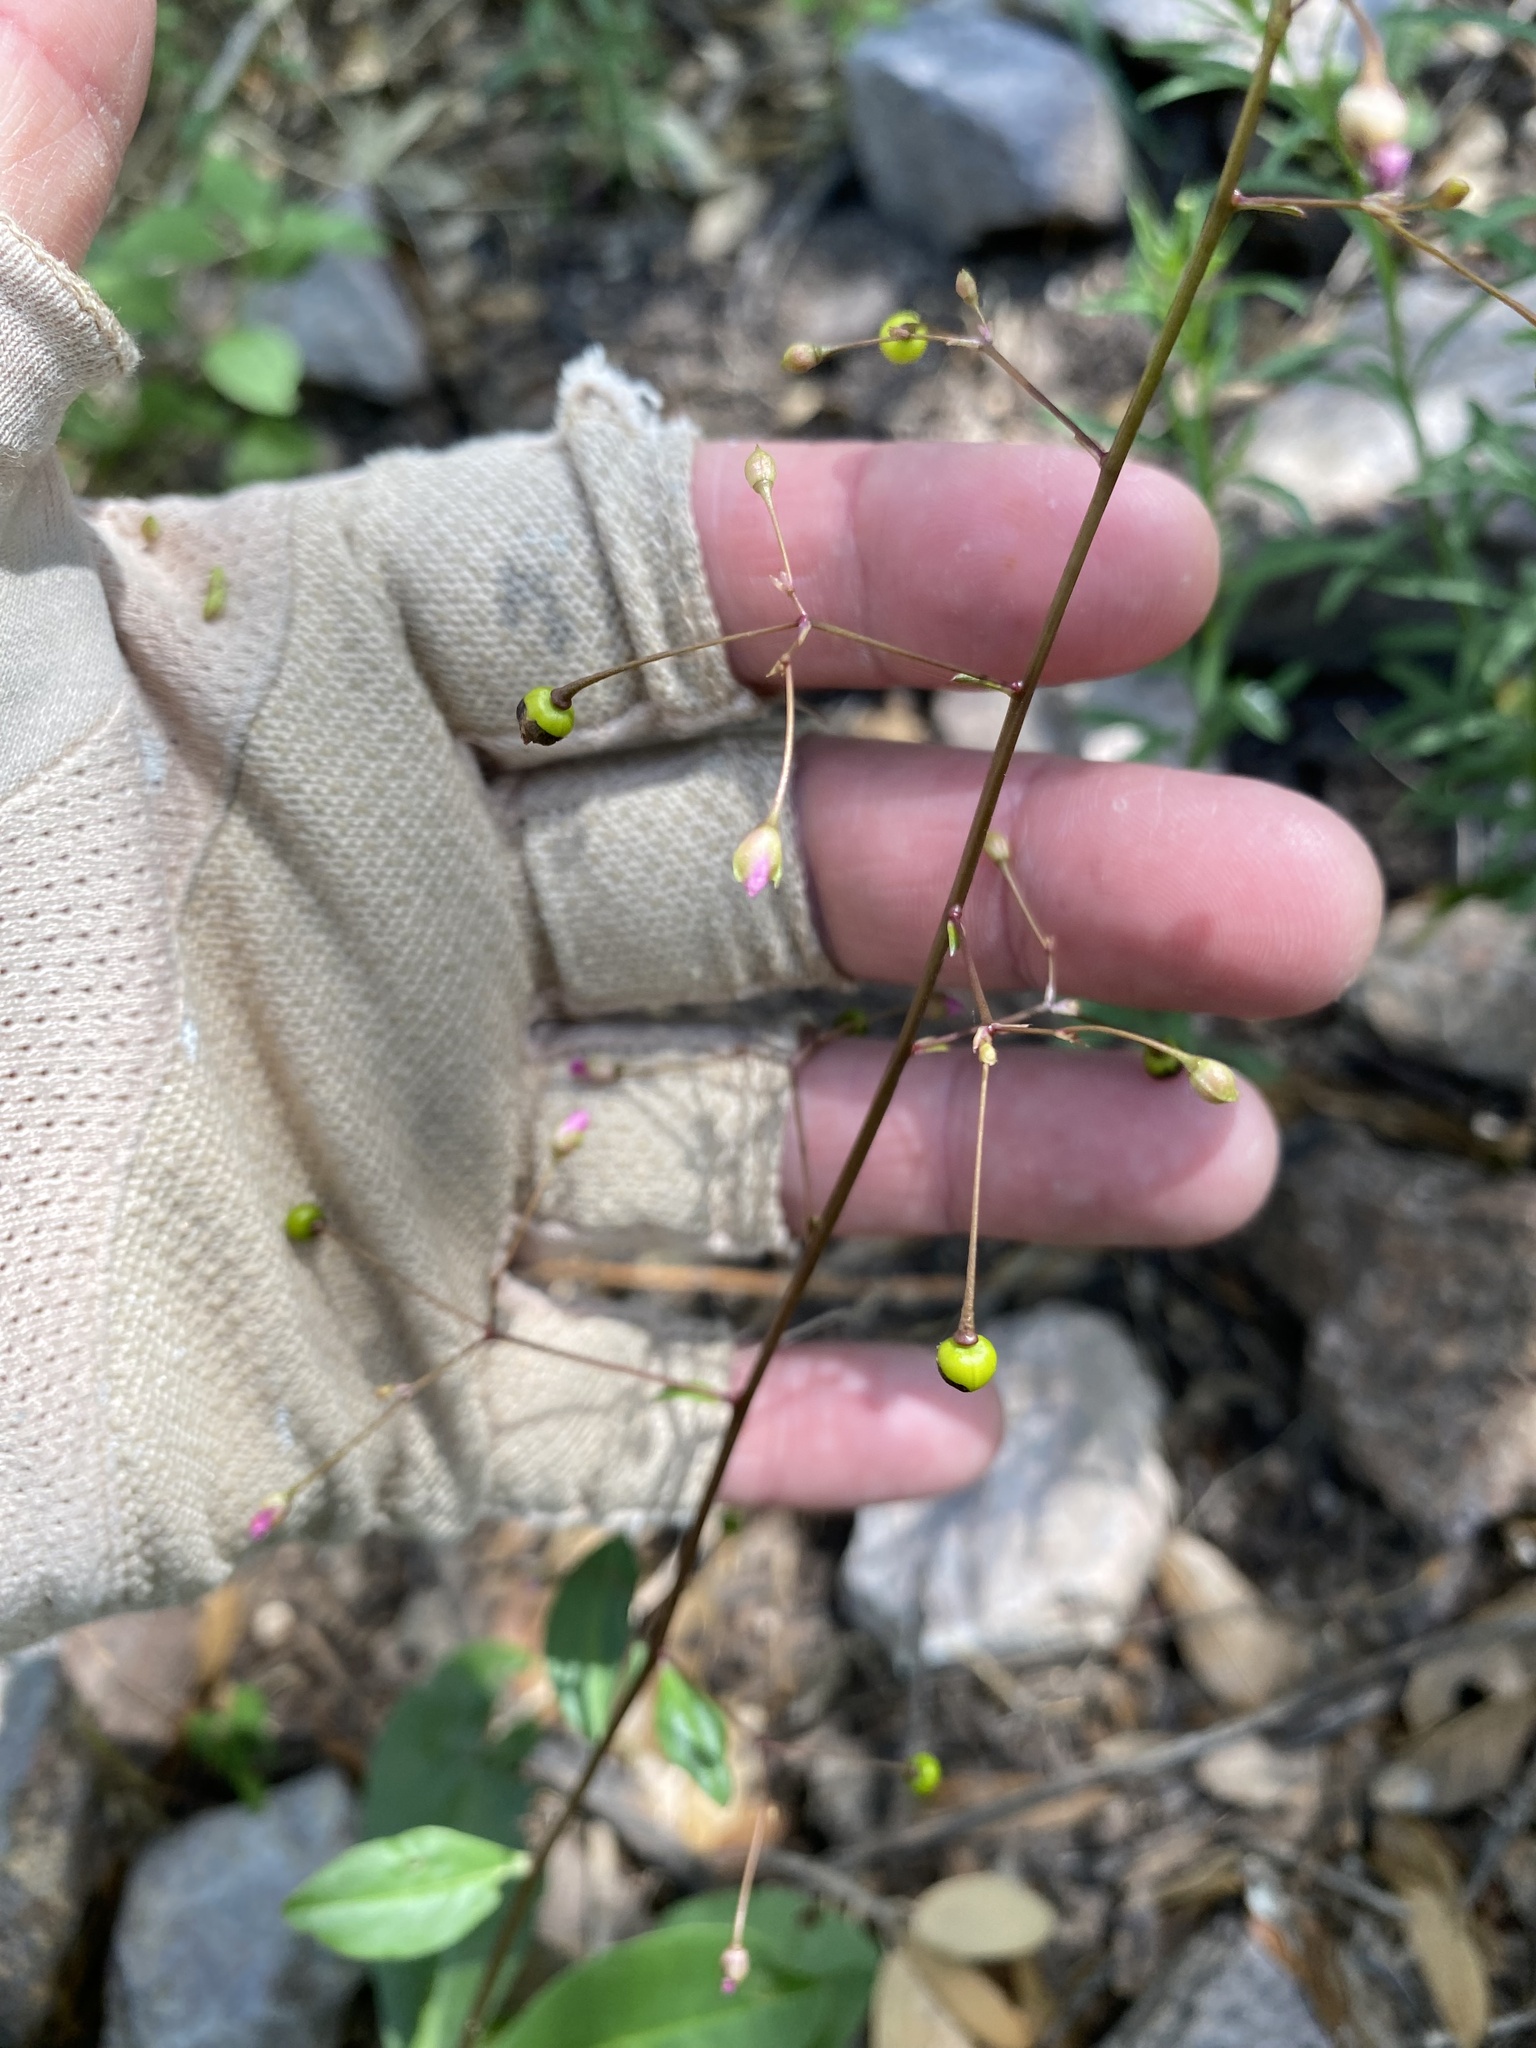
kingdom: Plantae
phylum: Tracheophyta
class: Magnoliopsida
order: Caryophyllales
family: Talinaceae
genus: Talinum
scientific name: Talinum sonorae
